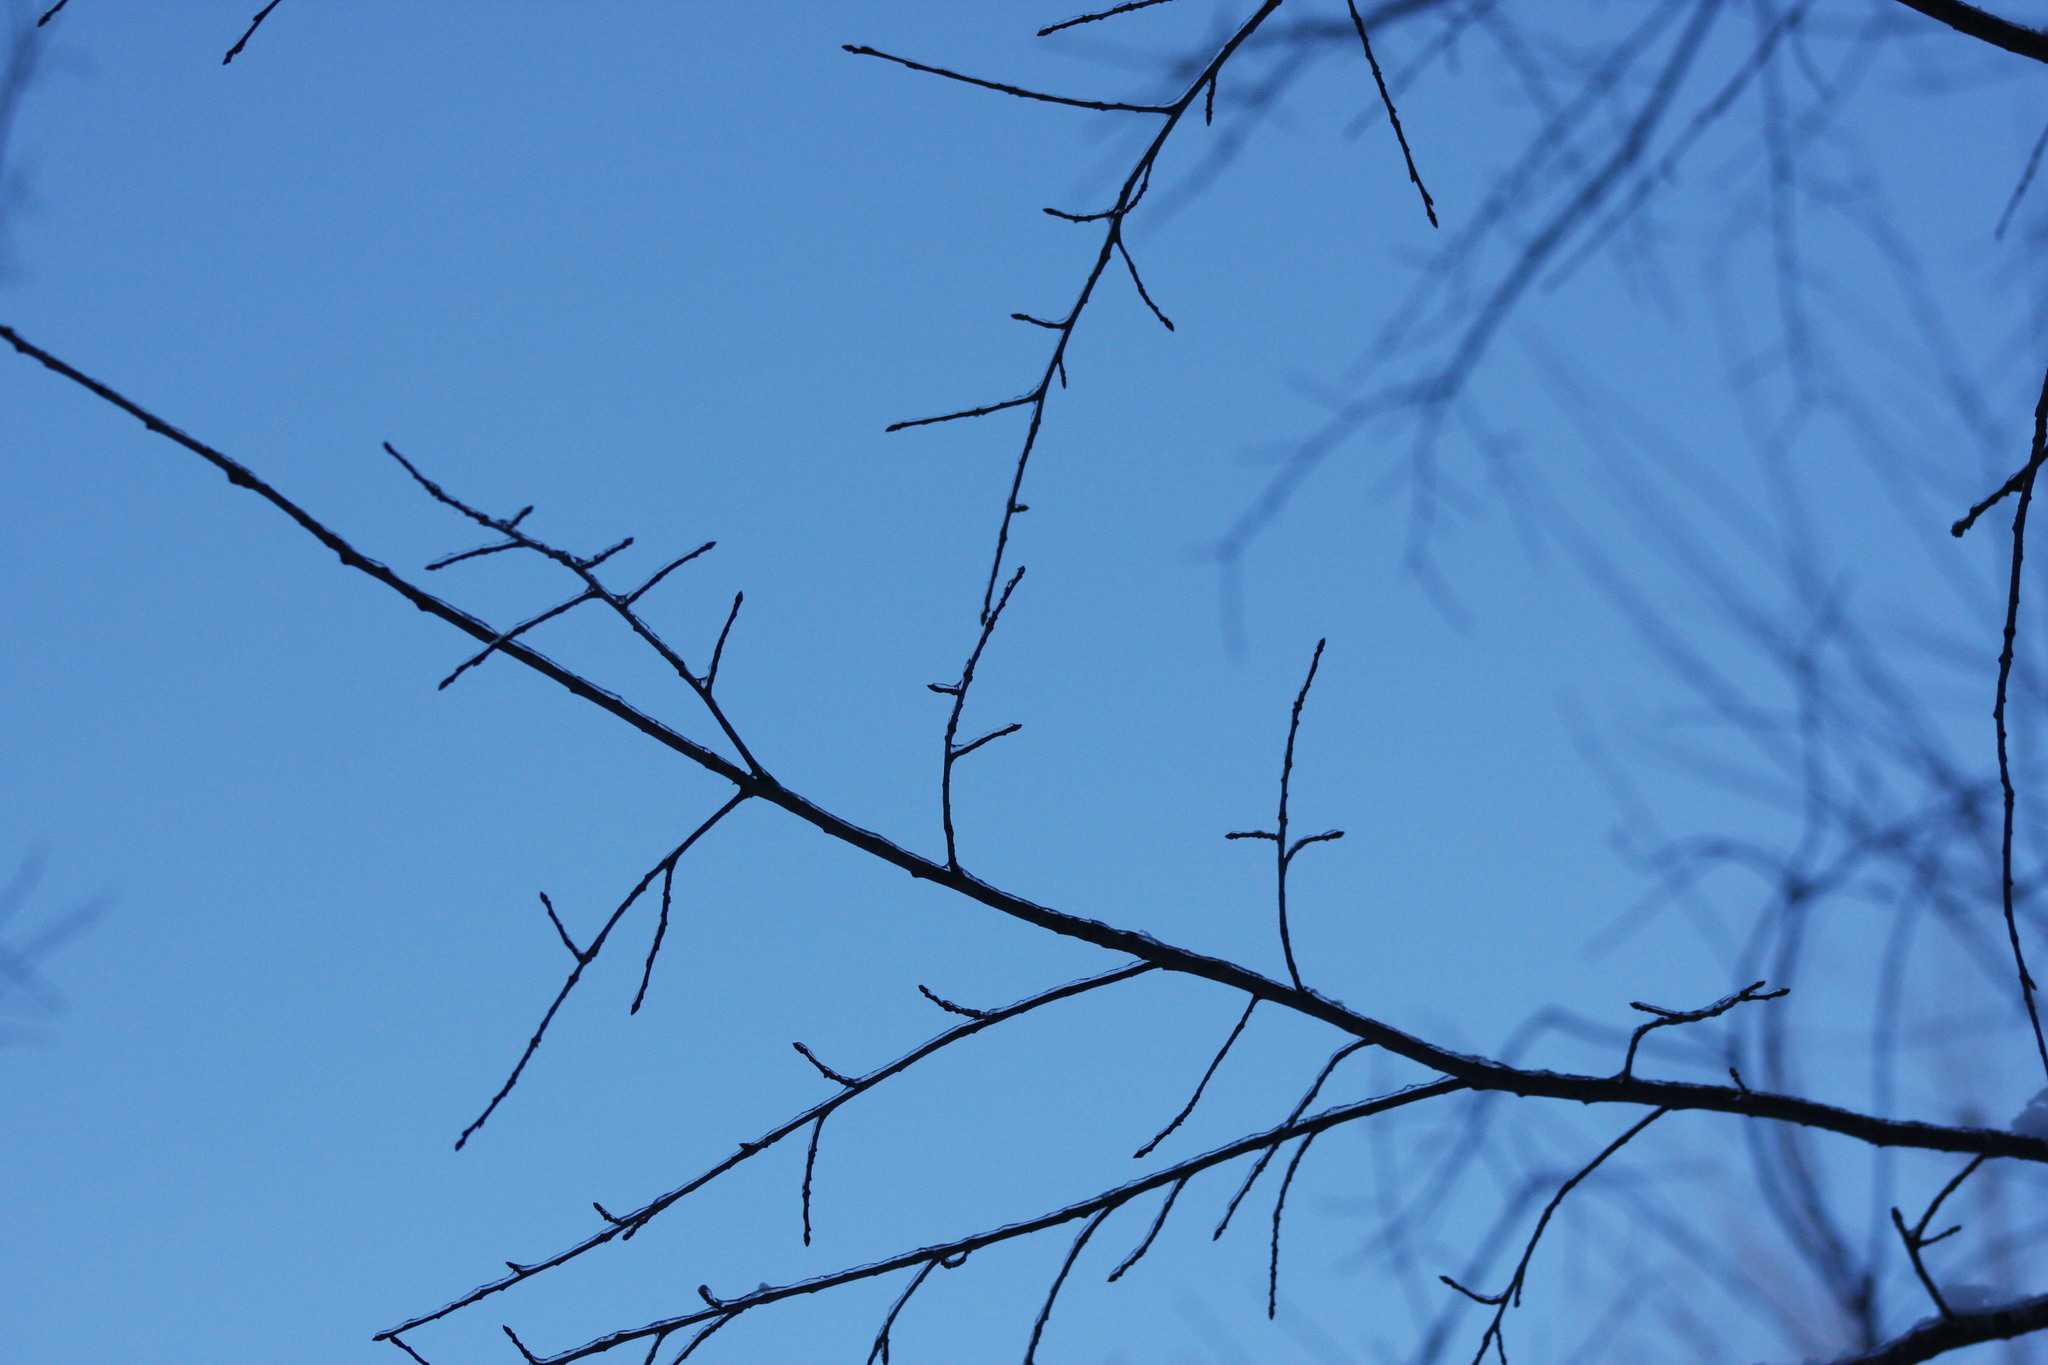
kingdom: Plantae
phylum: Tracheophyta
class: Magnoliopsida
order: Rosales
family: Rosaceae
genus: Prunus
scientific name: Prunus serotina
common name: Black cherry
